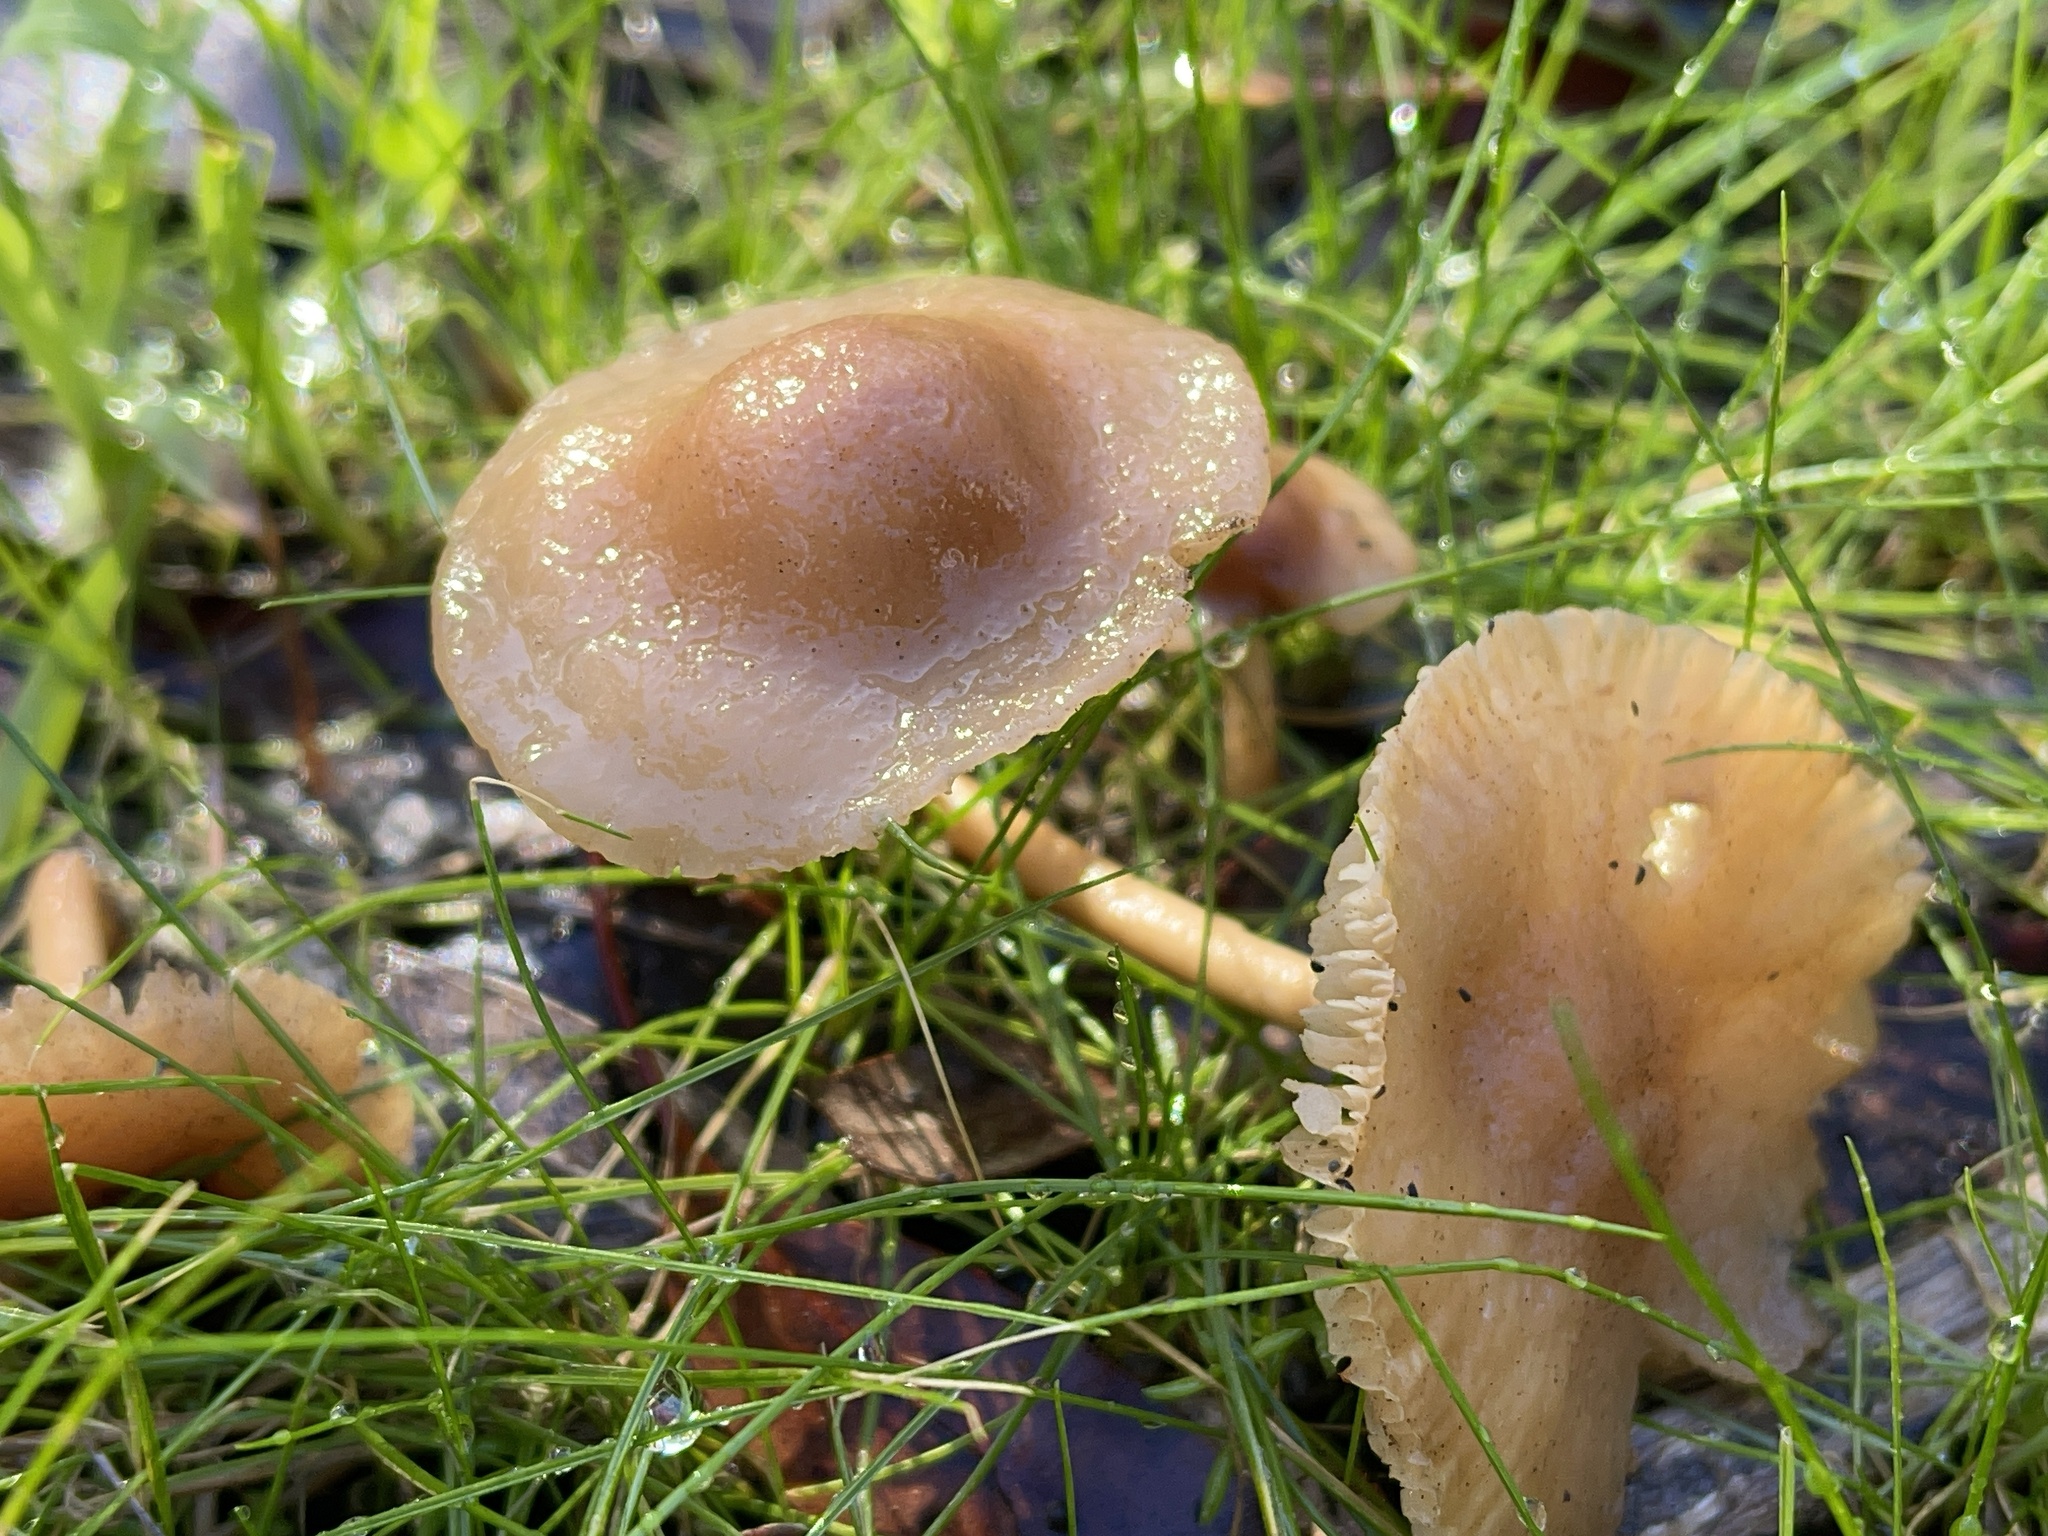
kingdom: Fungi
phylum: Basidiomycota
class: Agaricomycetes
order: Agaricales
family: Marasmiaceae
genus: Marasmius
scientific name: Marasmius oreades
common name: Fairy ring champignon
